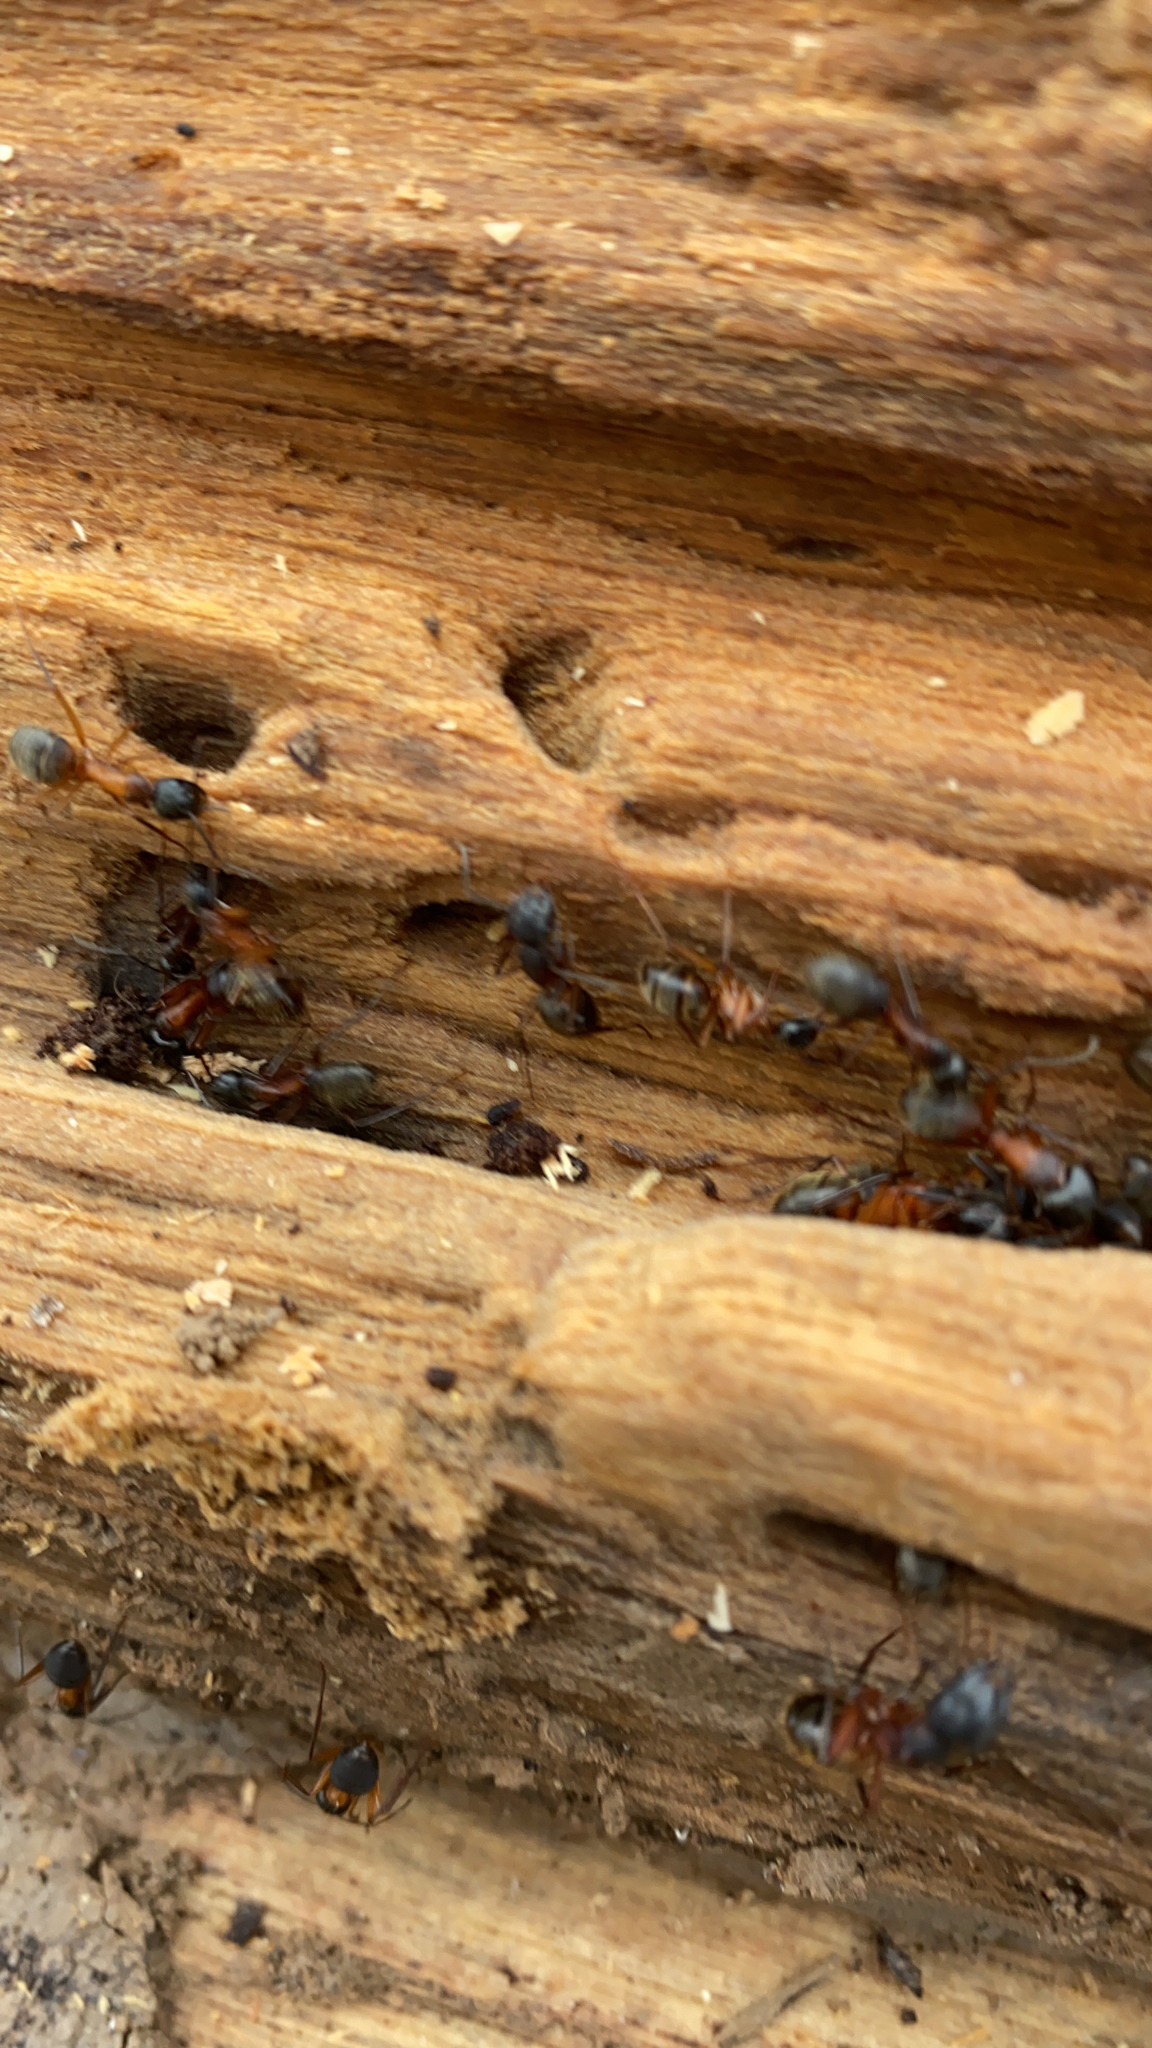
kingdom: Animalia
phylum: Arthropoda
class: Insecta
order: Hymenoptera
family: Formicidae
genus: Camponotus
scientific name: Camponotus chromaiodes
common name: Red carpenter ant
